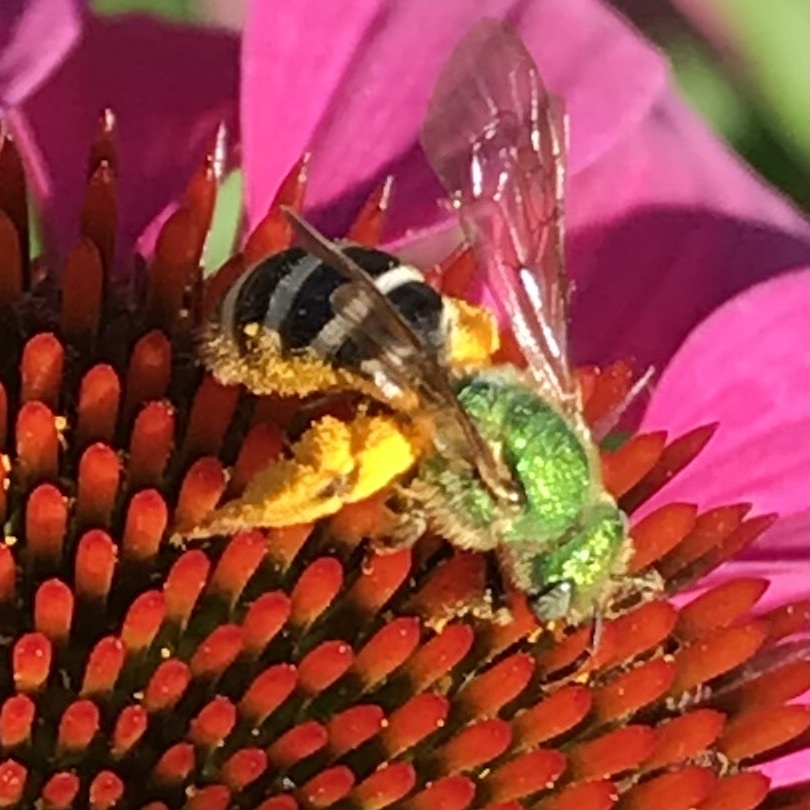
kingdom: Animalia
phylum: Arthropoda
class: Insecta
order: Hymenoptera
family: Halictidae
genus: Agapostemon
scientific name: Agapostemon virescens
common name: Bicolored striped sweat bee
